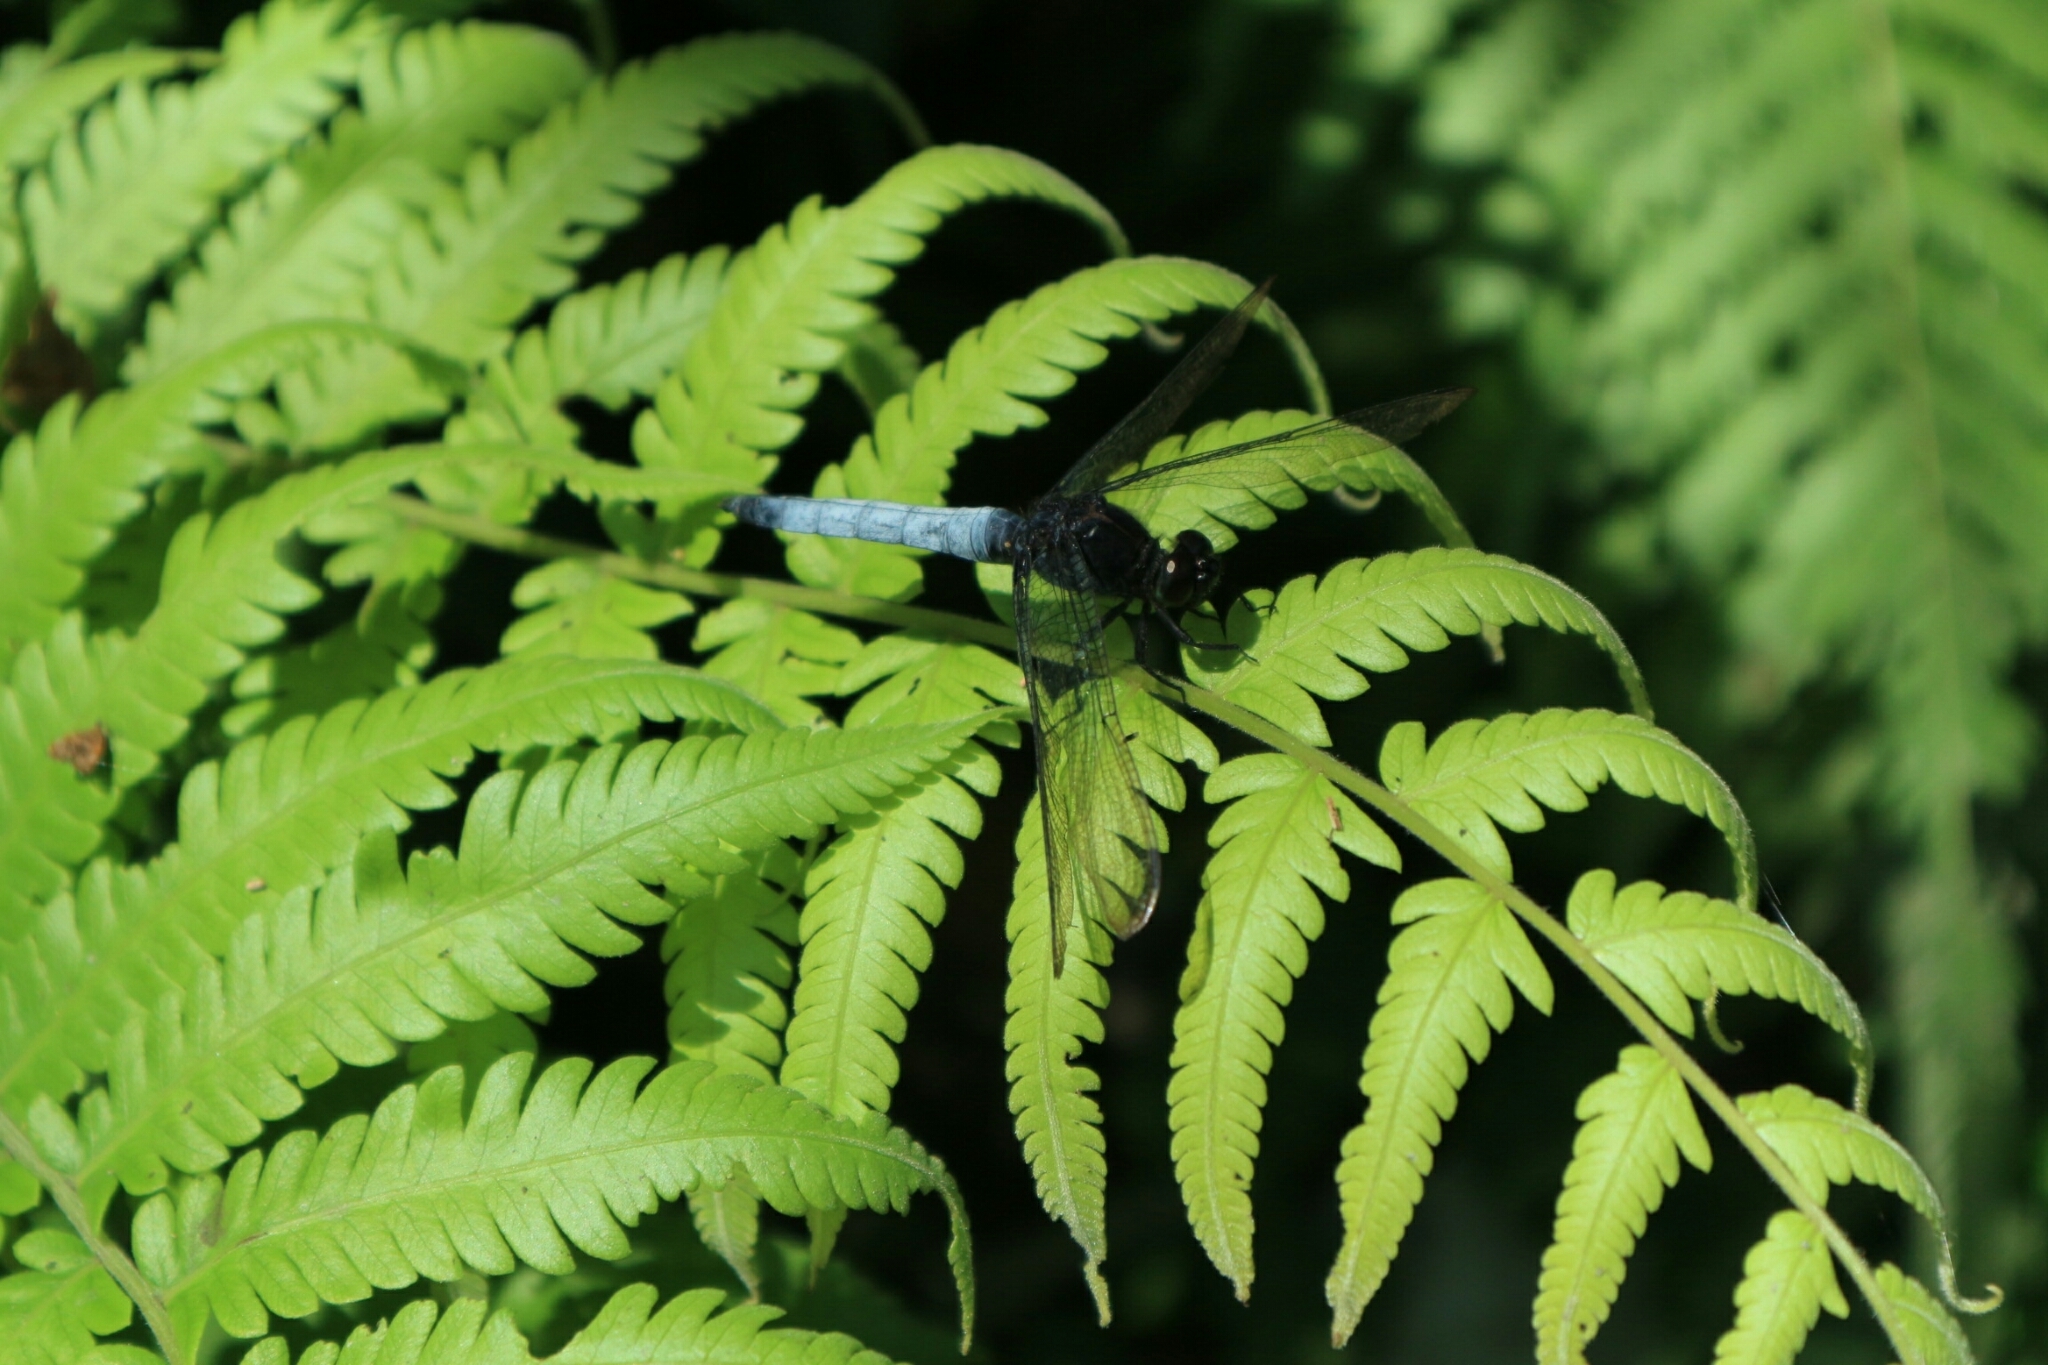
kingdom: Animalia
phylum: Arthropoda
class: Insecta
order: Odonata
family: Libellulidae
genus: Orthetrum
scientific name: Orthetrum triangulare
